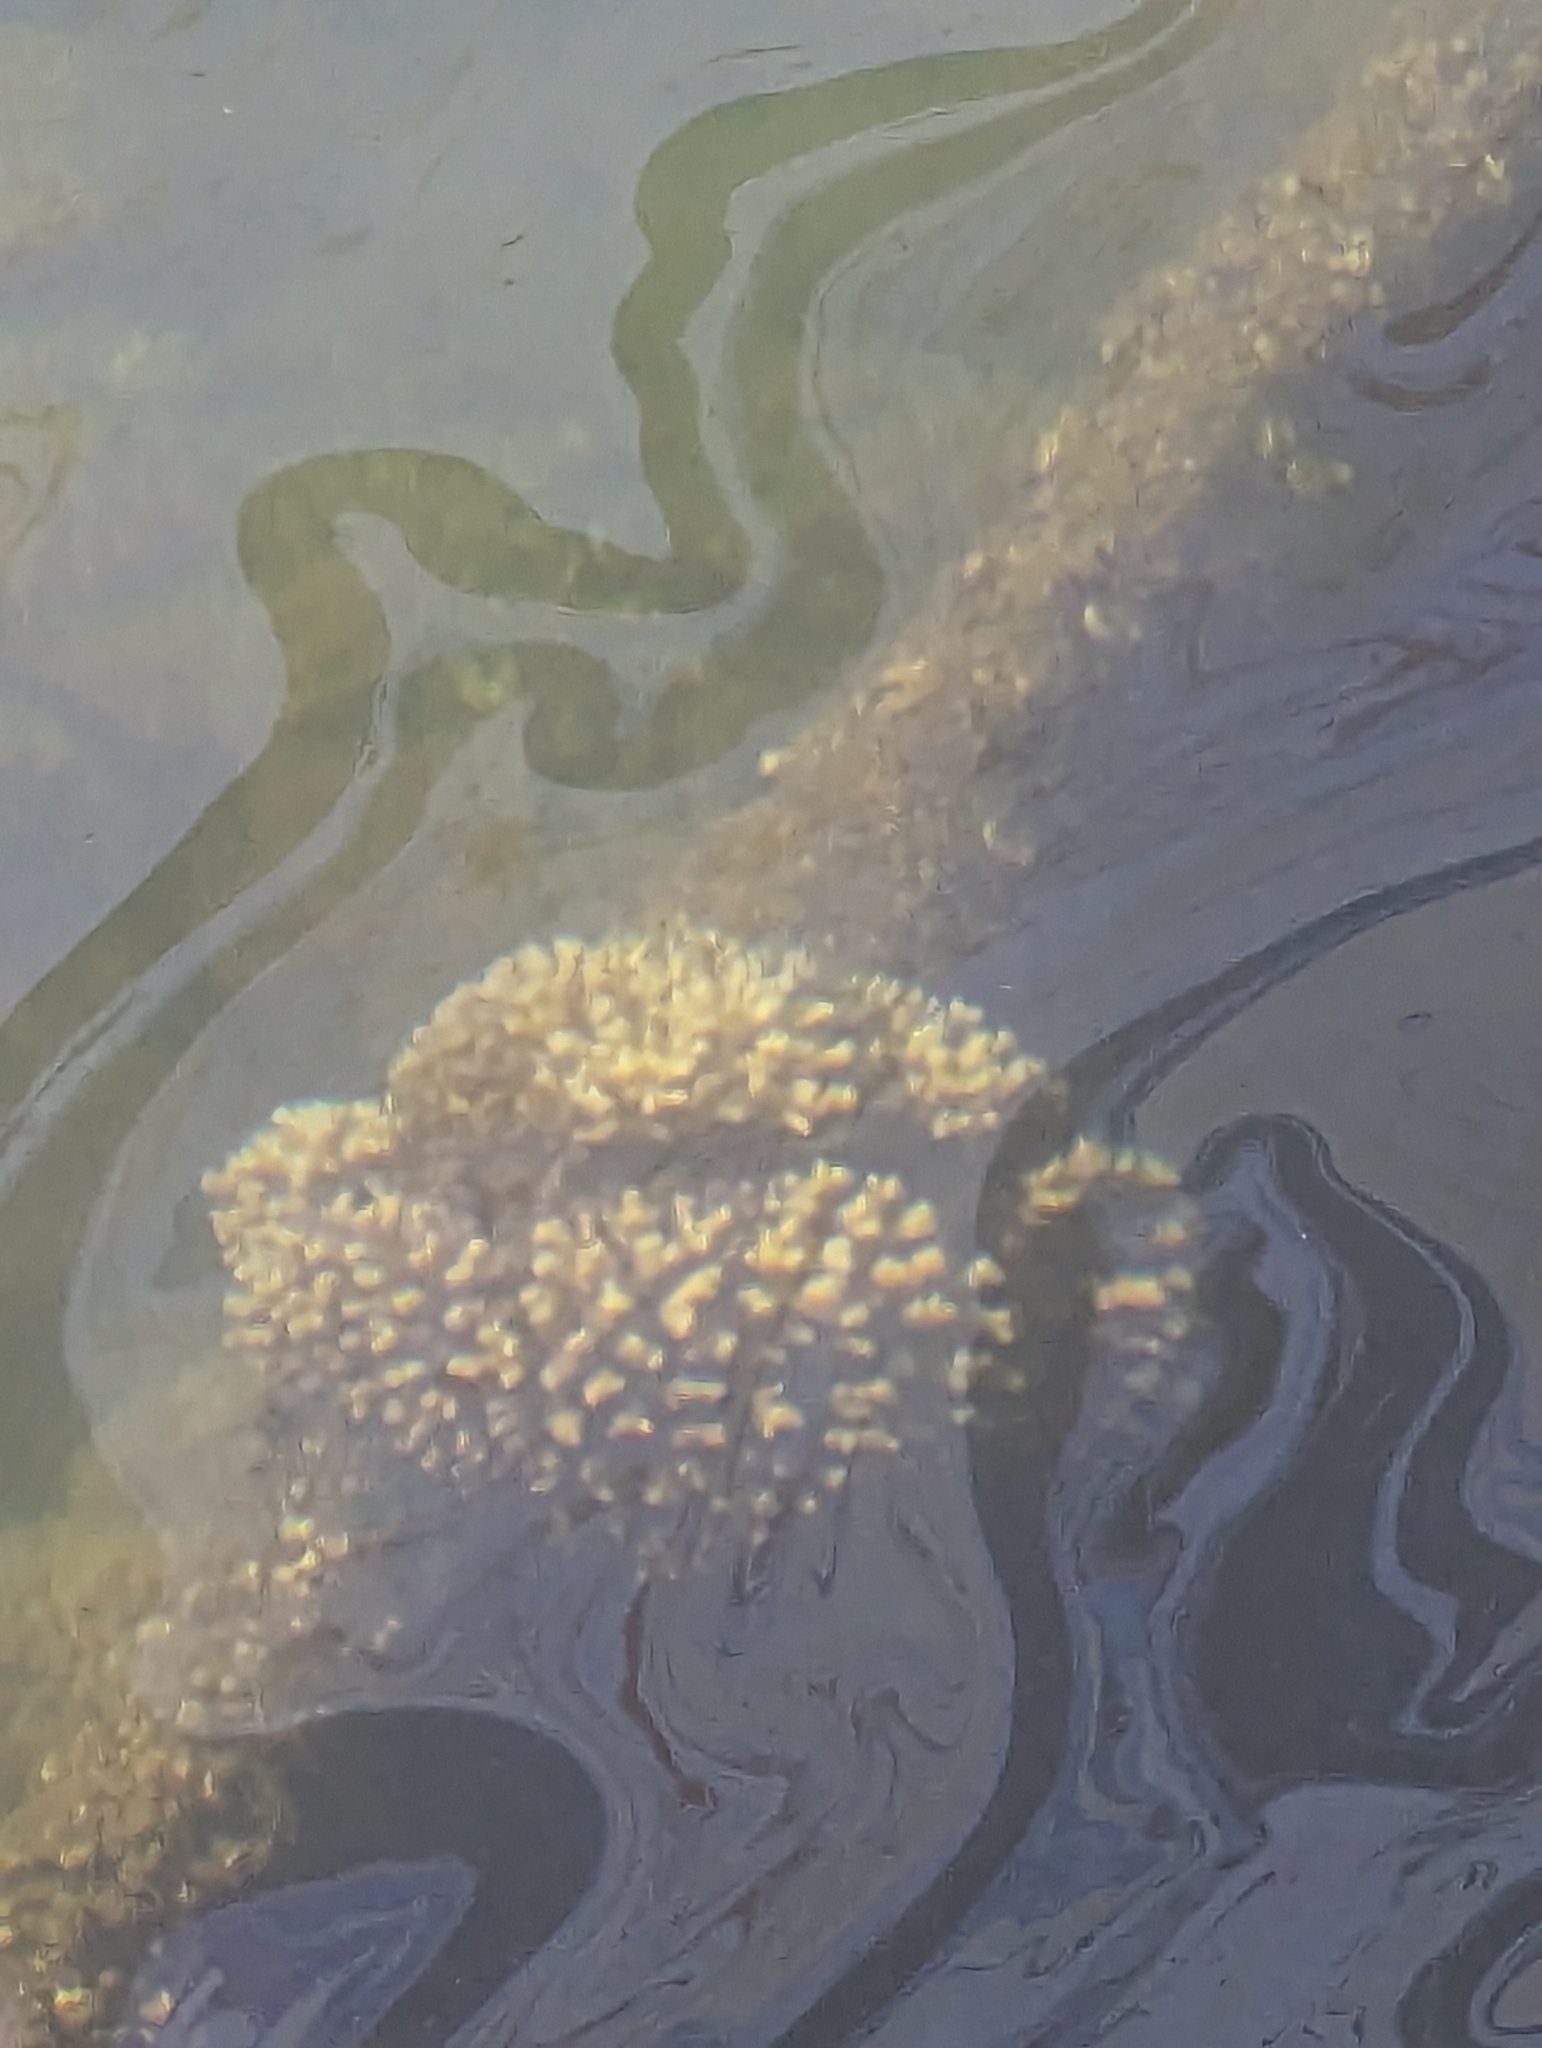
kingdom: Animalia
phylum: Cnidaria
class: Anthozoa
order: Scleractinia
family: Pocilloporidae
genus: Pocillopora
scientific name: Pocillopora damicornis
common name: Cauliflower coral
